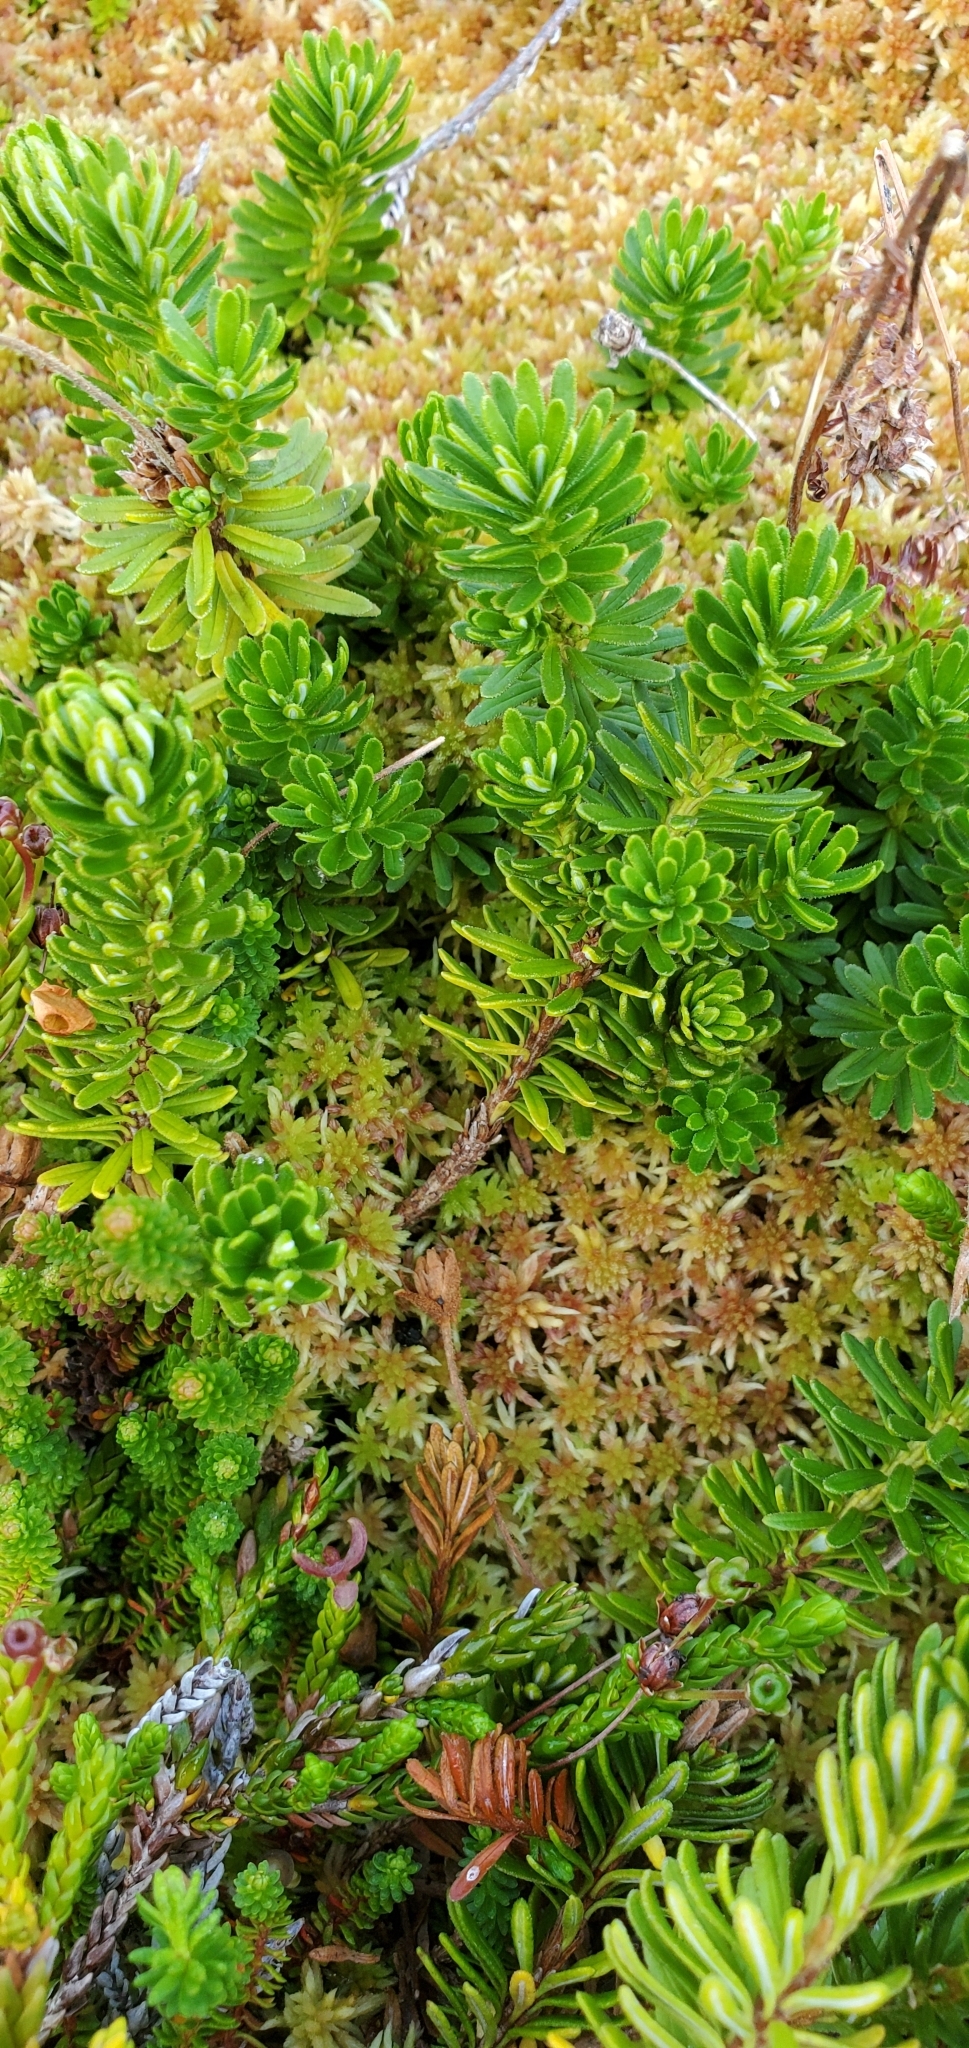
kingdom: Plantae
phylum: Tracheophyta
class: Magnoliopsida
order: Ericales
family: Ericaceae
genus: Phyllodoce
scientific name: Phyllodoce glanduliflora
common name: Cream mountain heather
